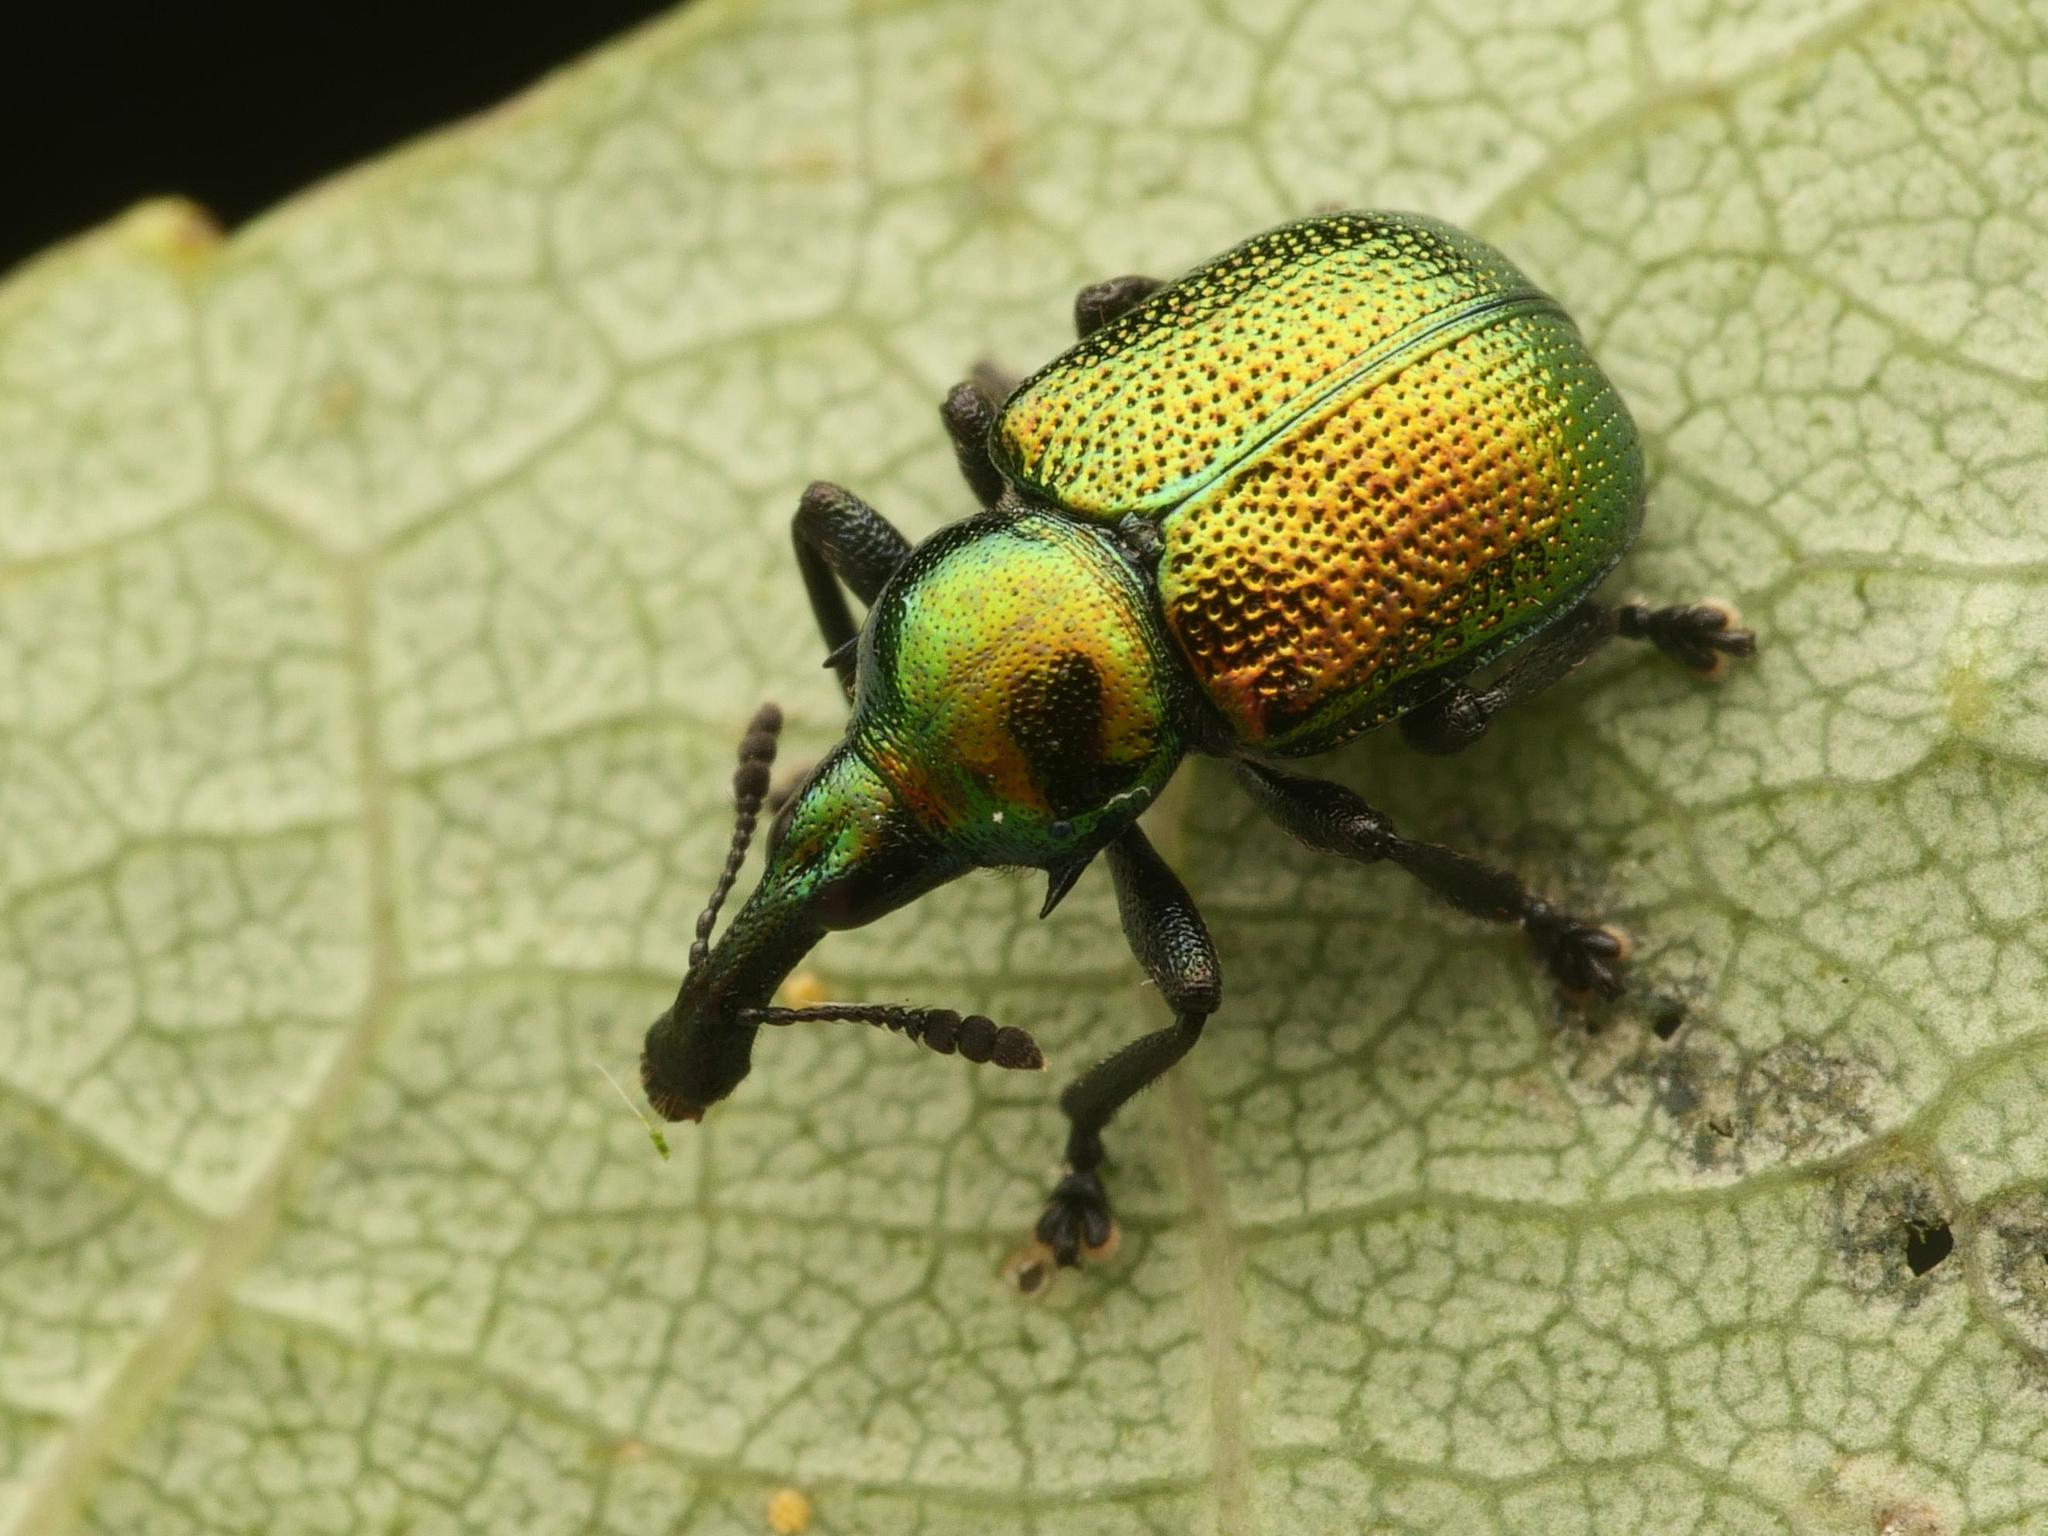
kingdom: Animalia
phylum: Arthropoda
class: Insecta
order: Coleoptera
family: Attelabidae
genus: Byctiscus
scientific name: Byctiscus populi
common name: Leaf-rolling weevil
